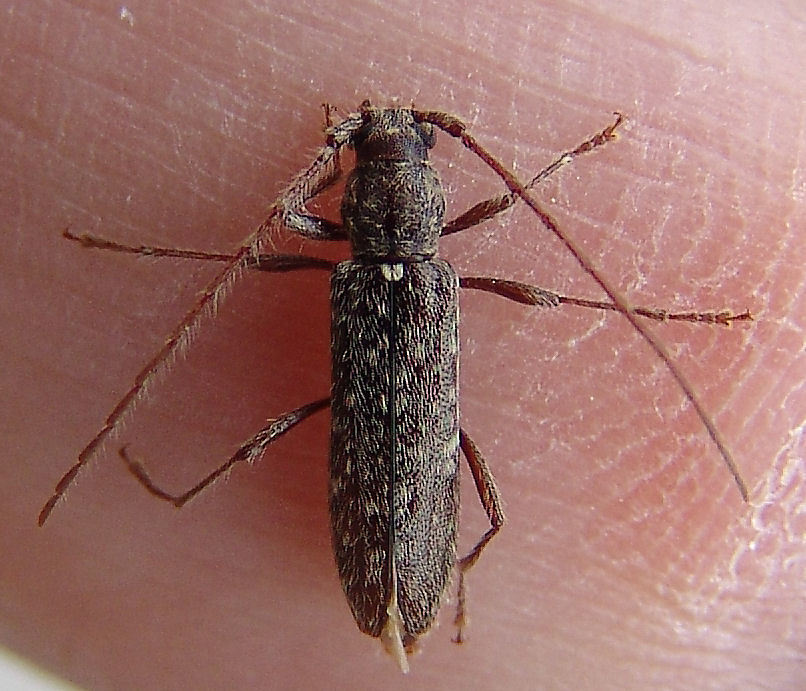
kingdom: Animalia
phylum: Arthropoda
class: Insecta
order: Coleoptera
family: Cerambycidae
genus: Anelaphus
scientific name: Anelaphus pumilus
